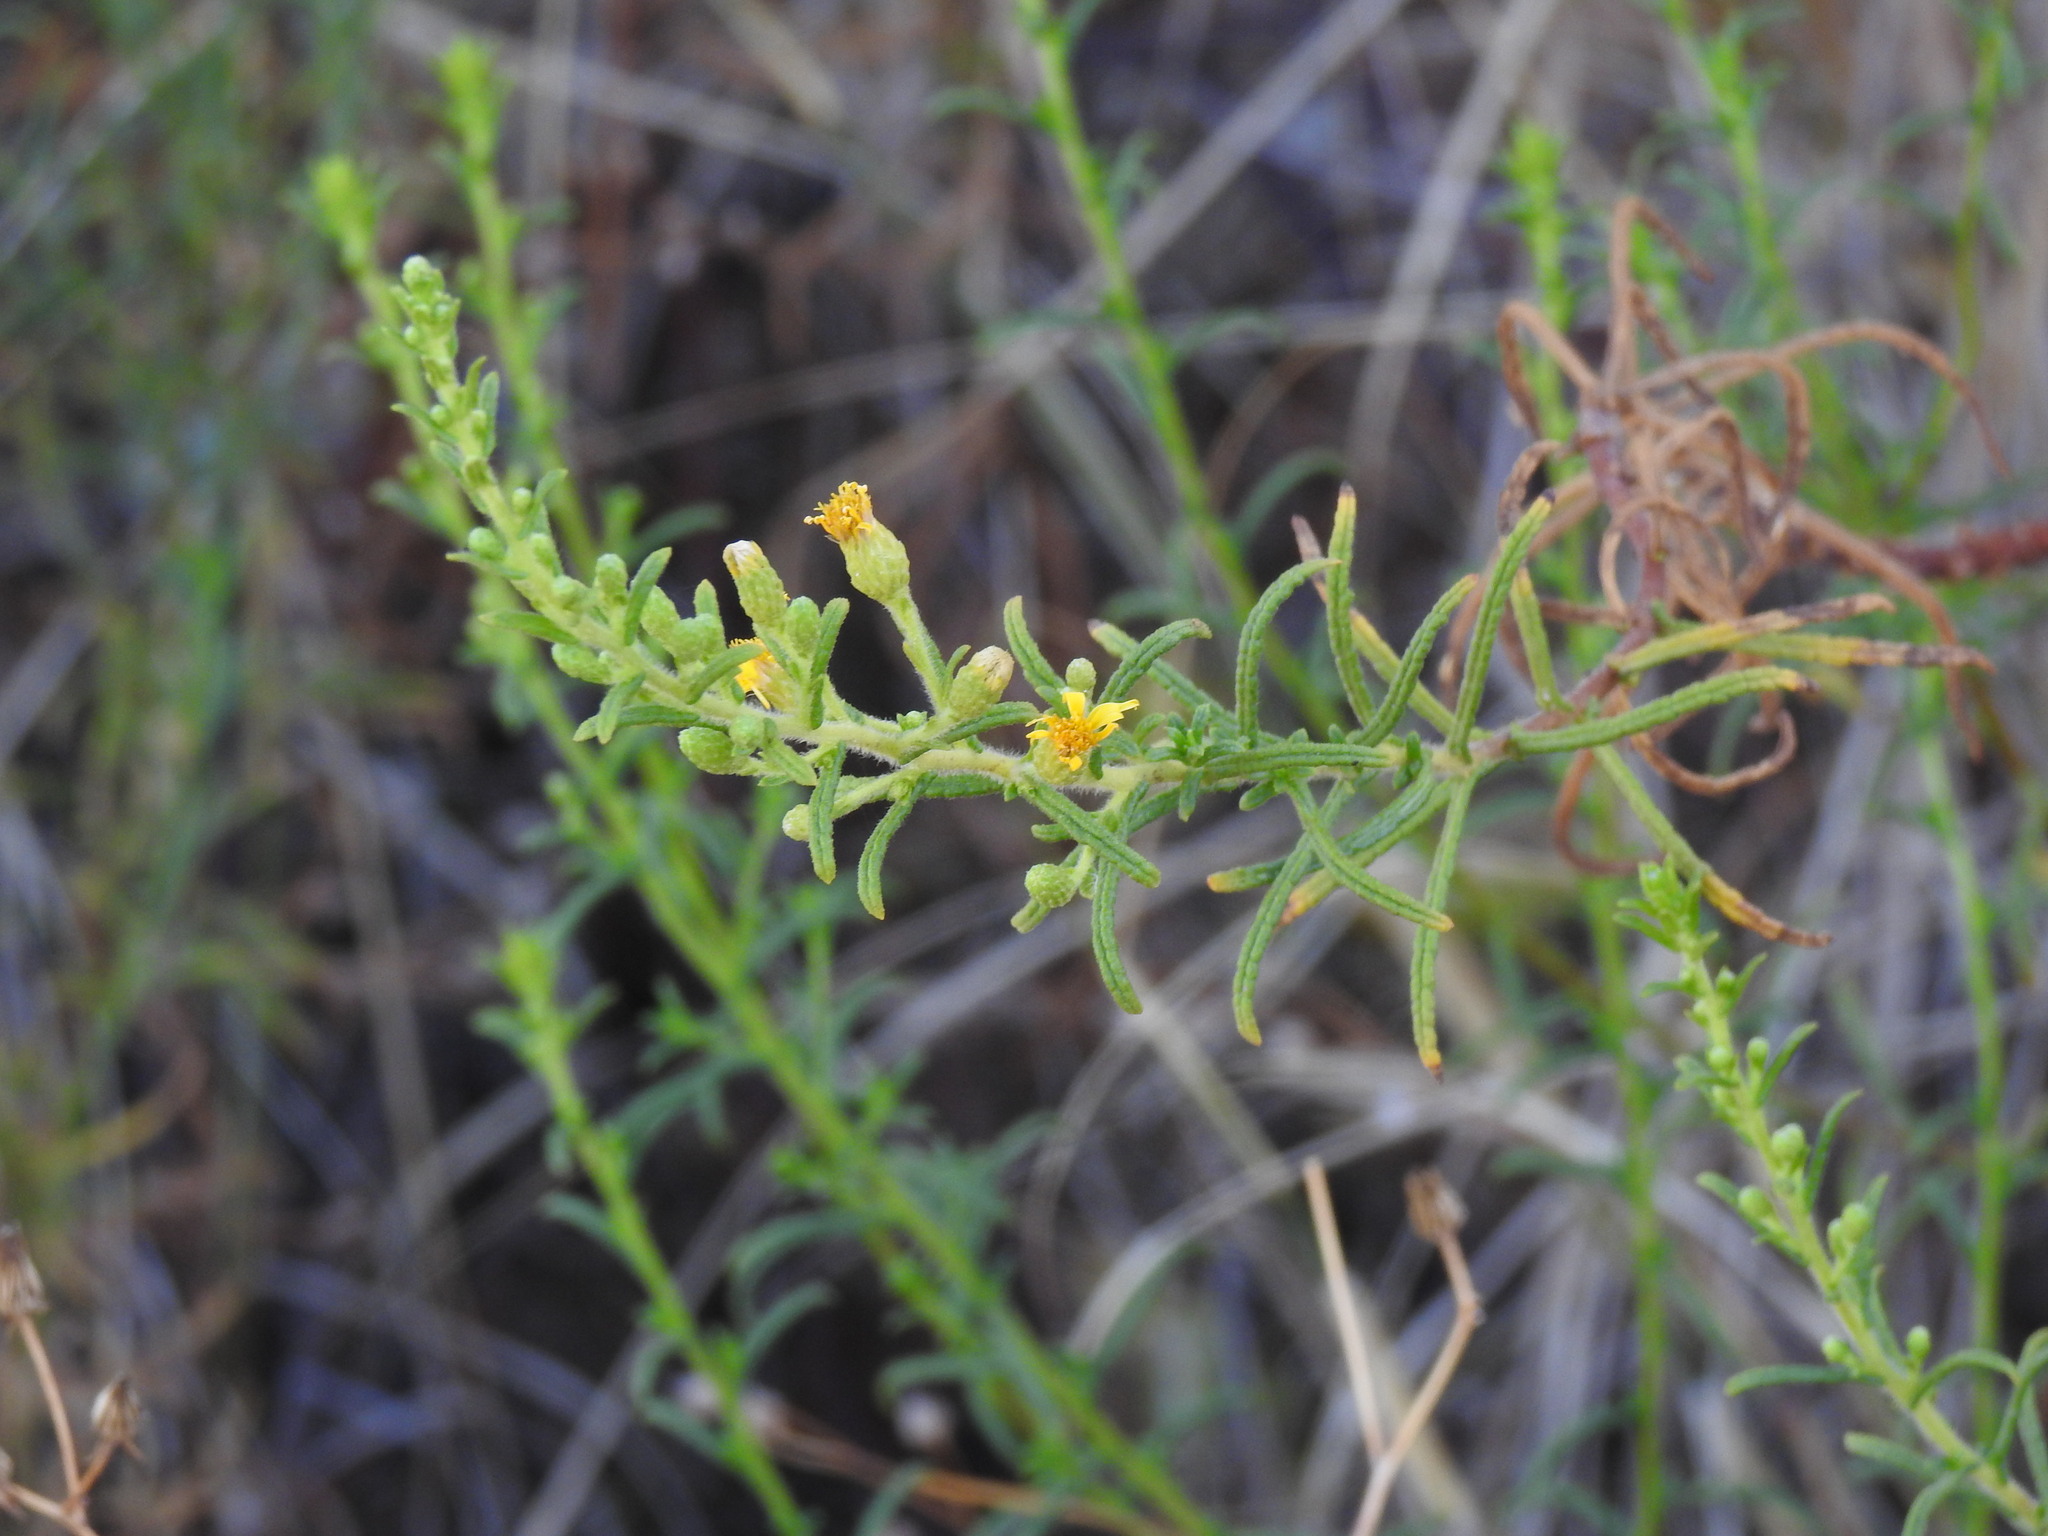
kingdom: Plantae
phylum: Tracheophyta
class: Magnoliopsida
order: Asterales
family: Asteraceae
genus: Dittrichia
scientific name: Dittrichia viscosa
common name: Woody fleabane
